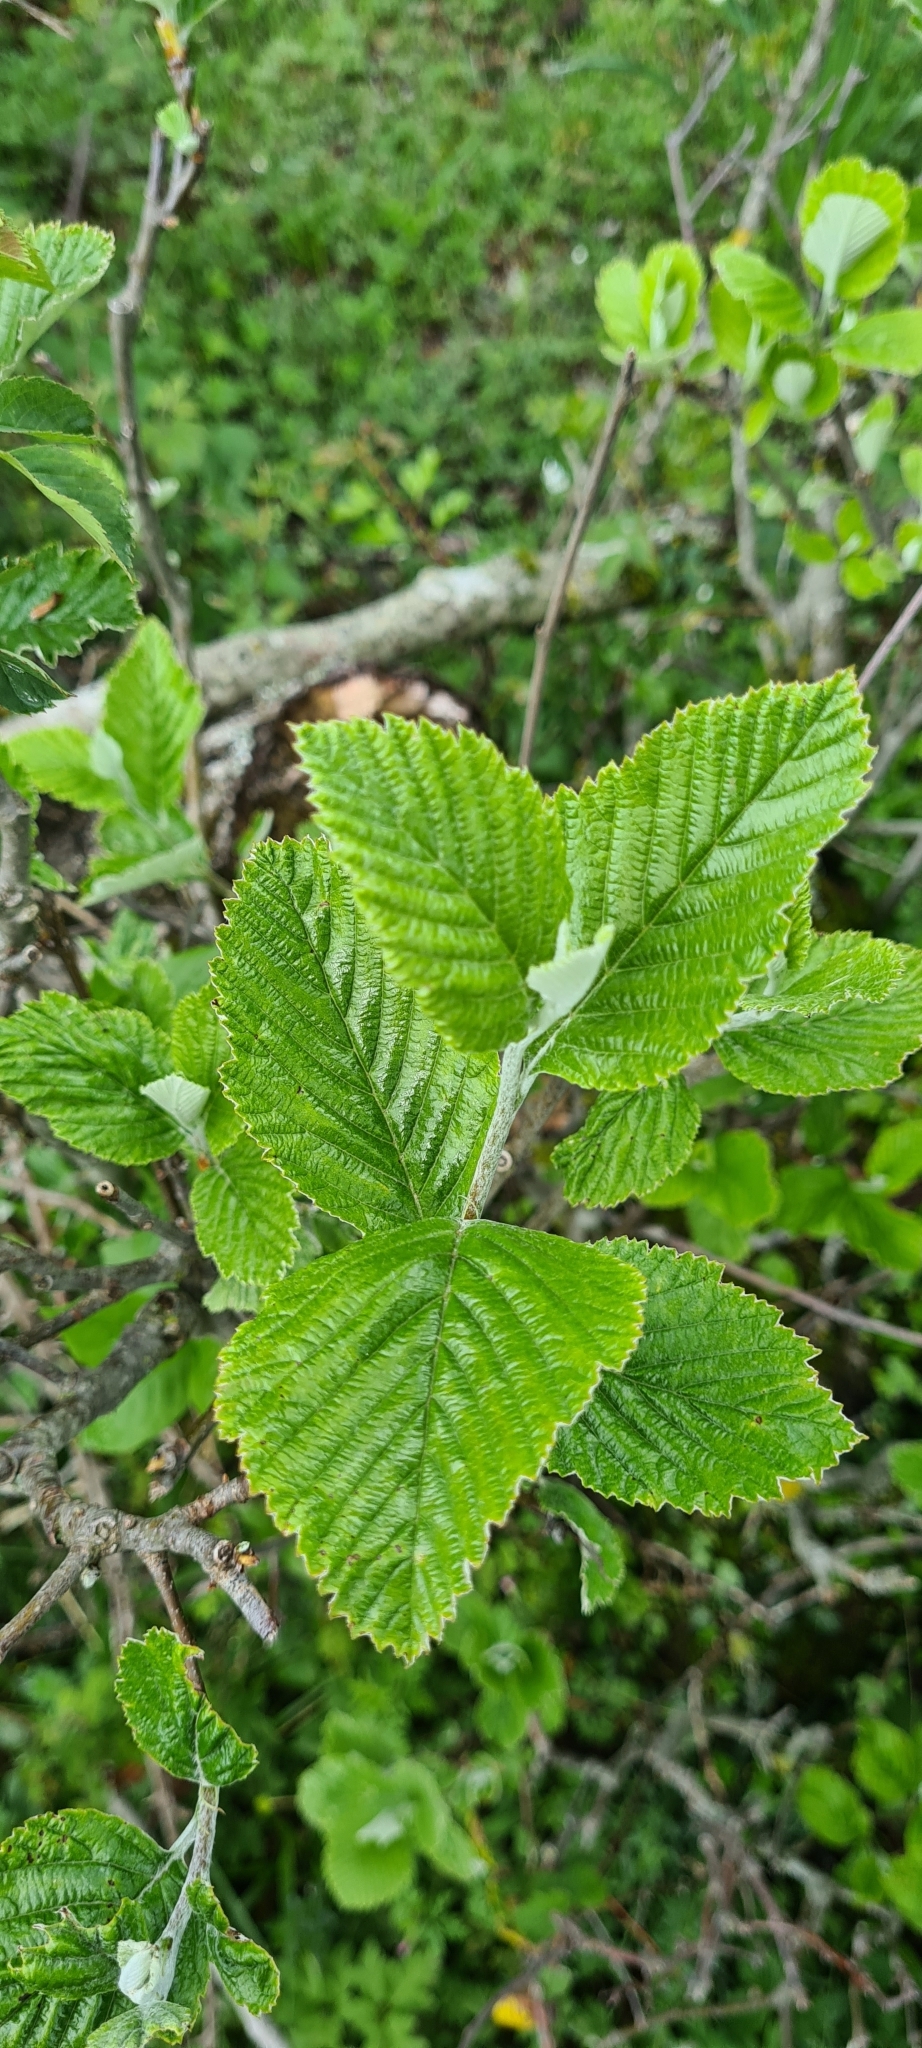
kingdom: Plantae
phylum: Tracheophyta
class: Magnoliopsida
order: Rosales
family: Rosaceae
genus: Aria
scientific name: Aria edulis
